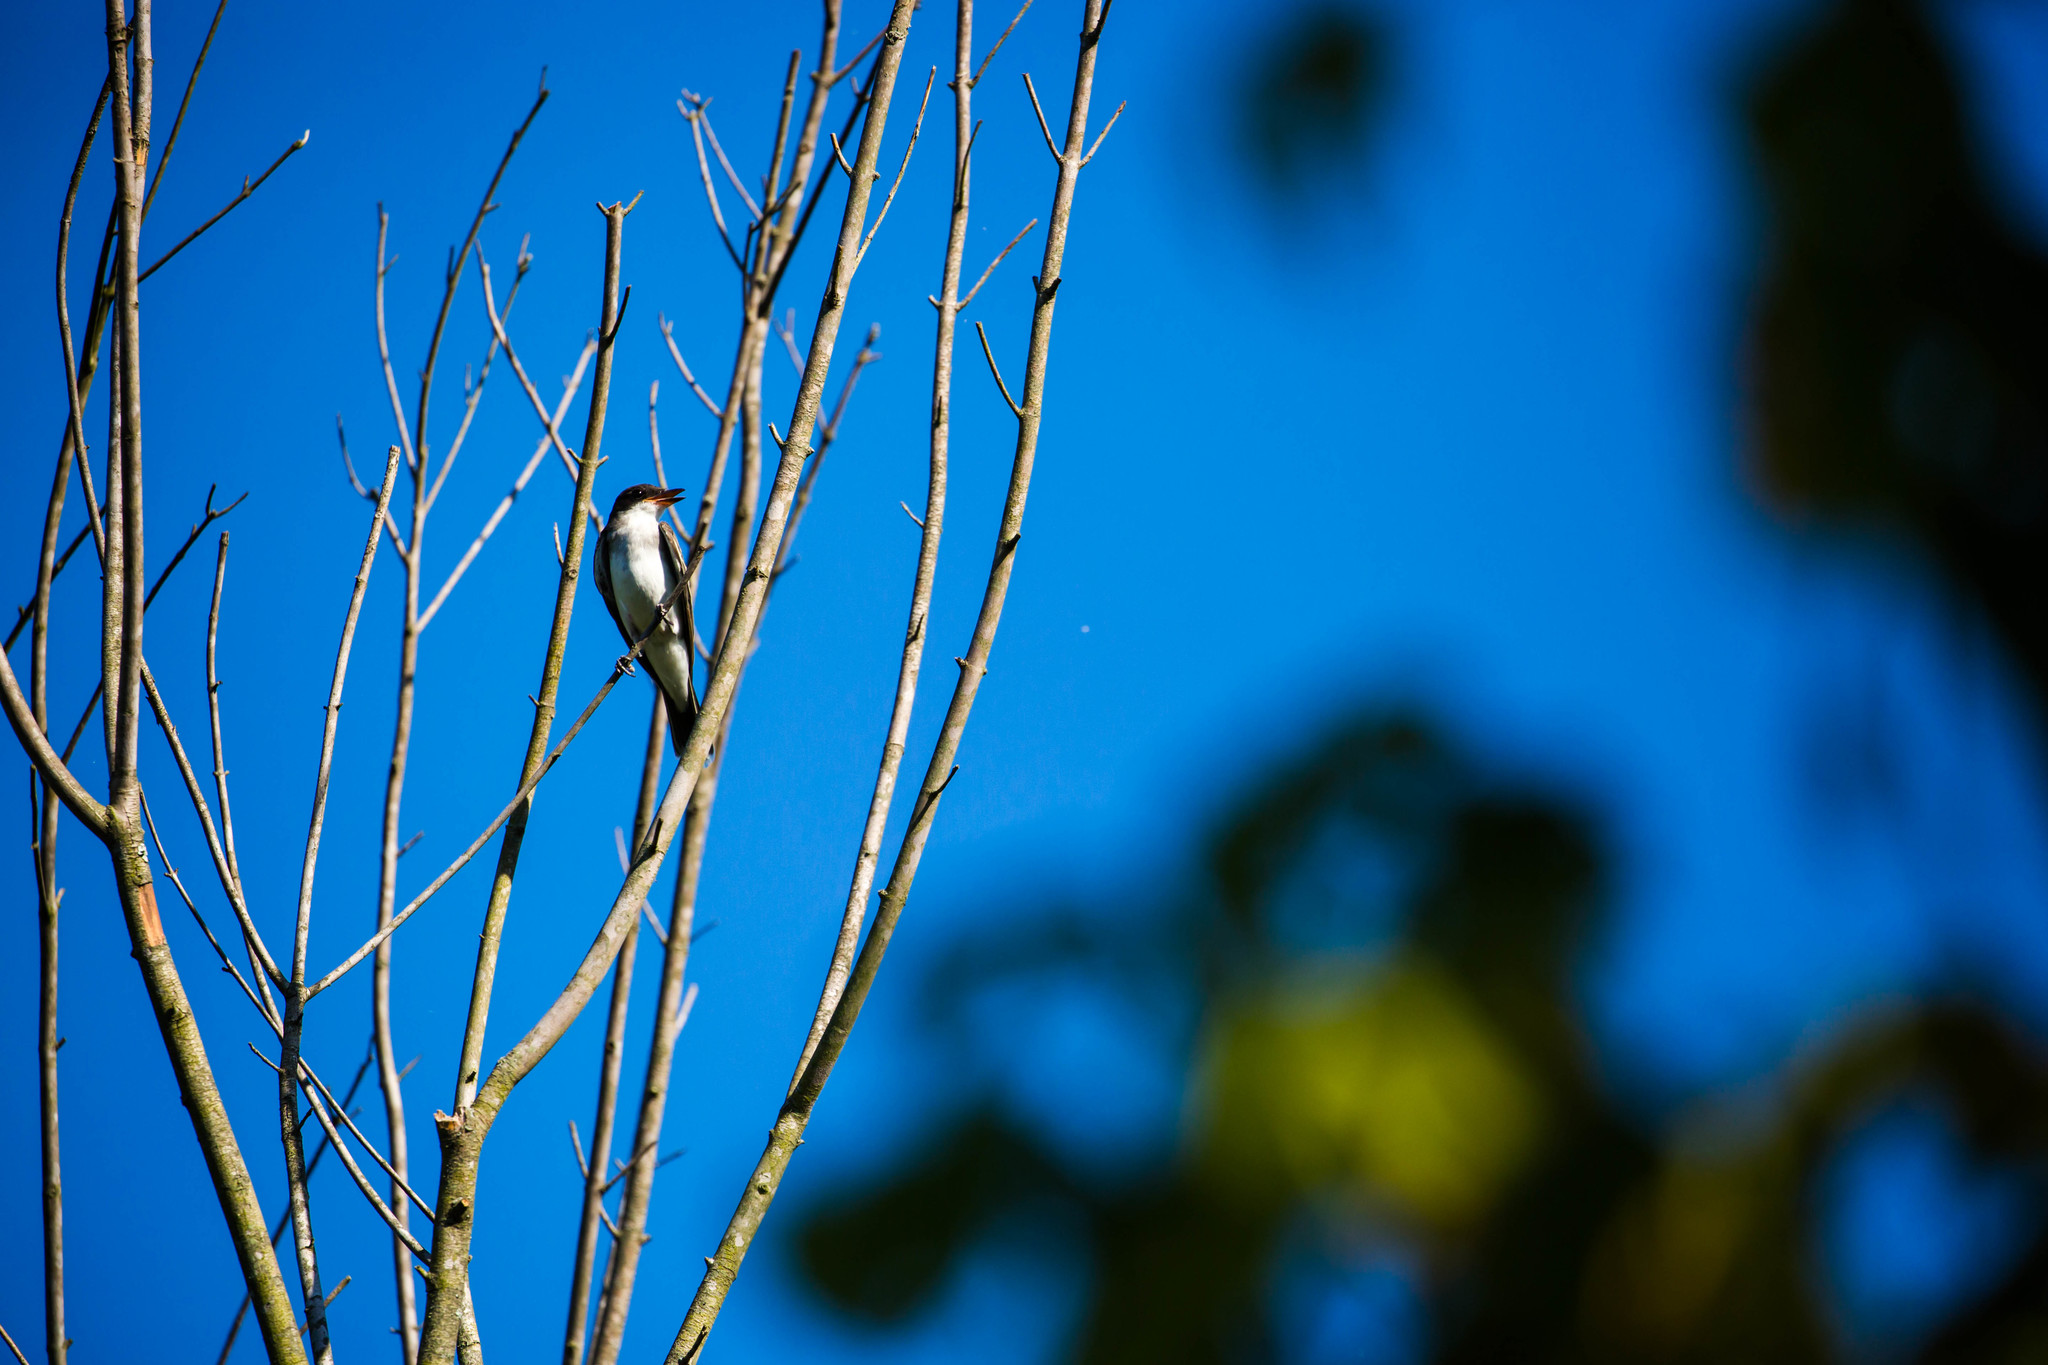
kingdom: Animalia
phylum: Chordata
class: Aves
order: Passeriformes
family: Tyrannidae
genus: Tyrannus
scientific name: Tyrannus tyrannus
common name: Eastern kingbird
